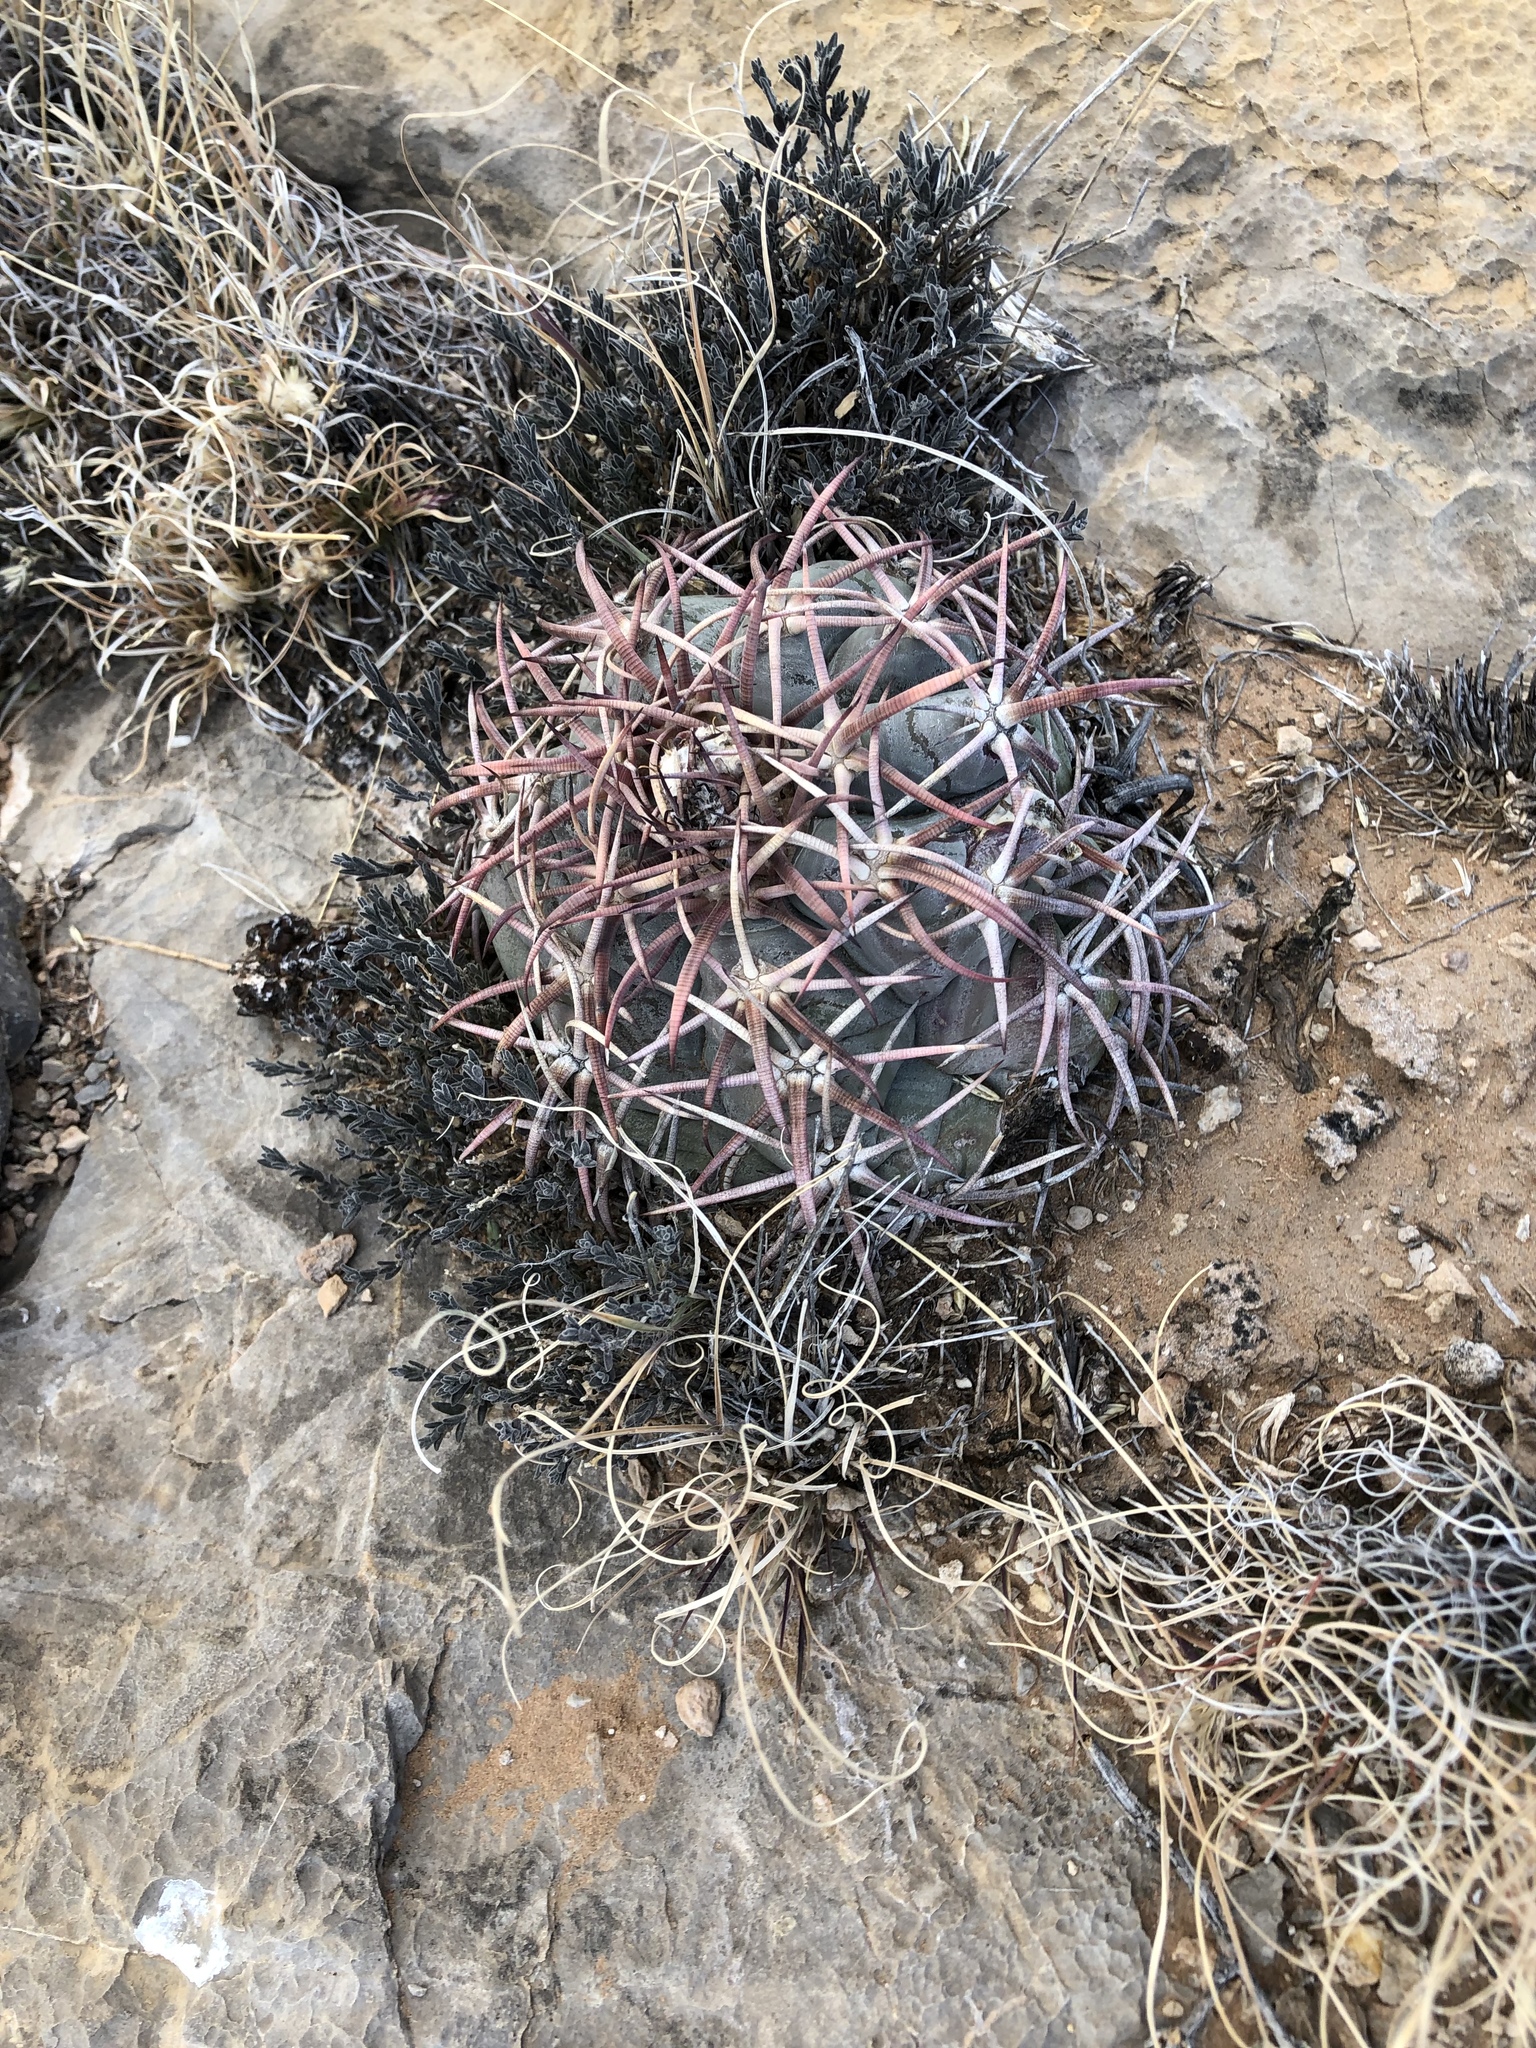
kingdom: Plantae
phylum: Tracheophyta
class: Magnoliopsida
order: Caryophyllales
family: Cactaceae
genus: Echinocactus
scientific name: Echinocactus horizonthalonius
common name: Devilshead
